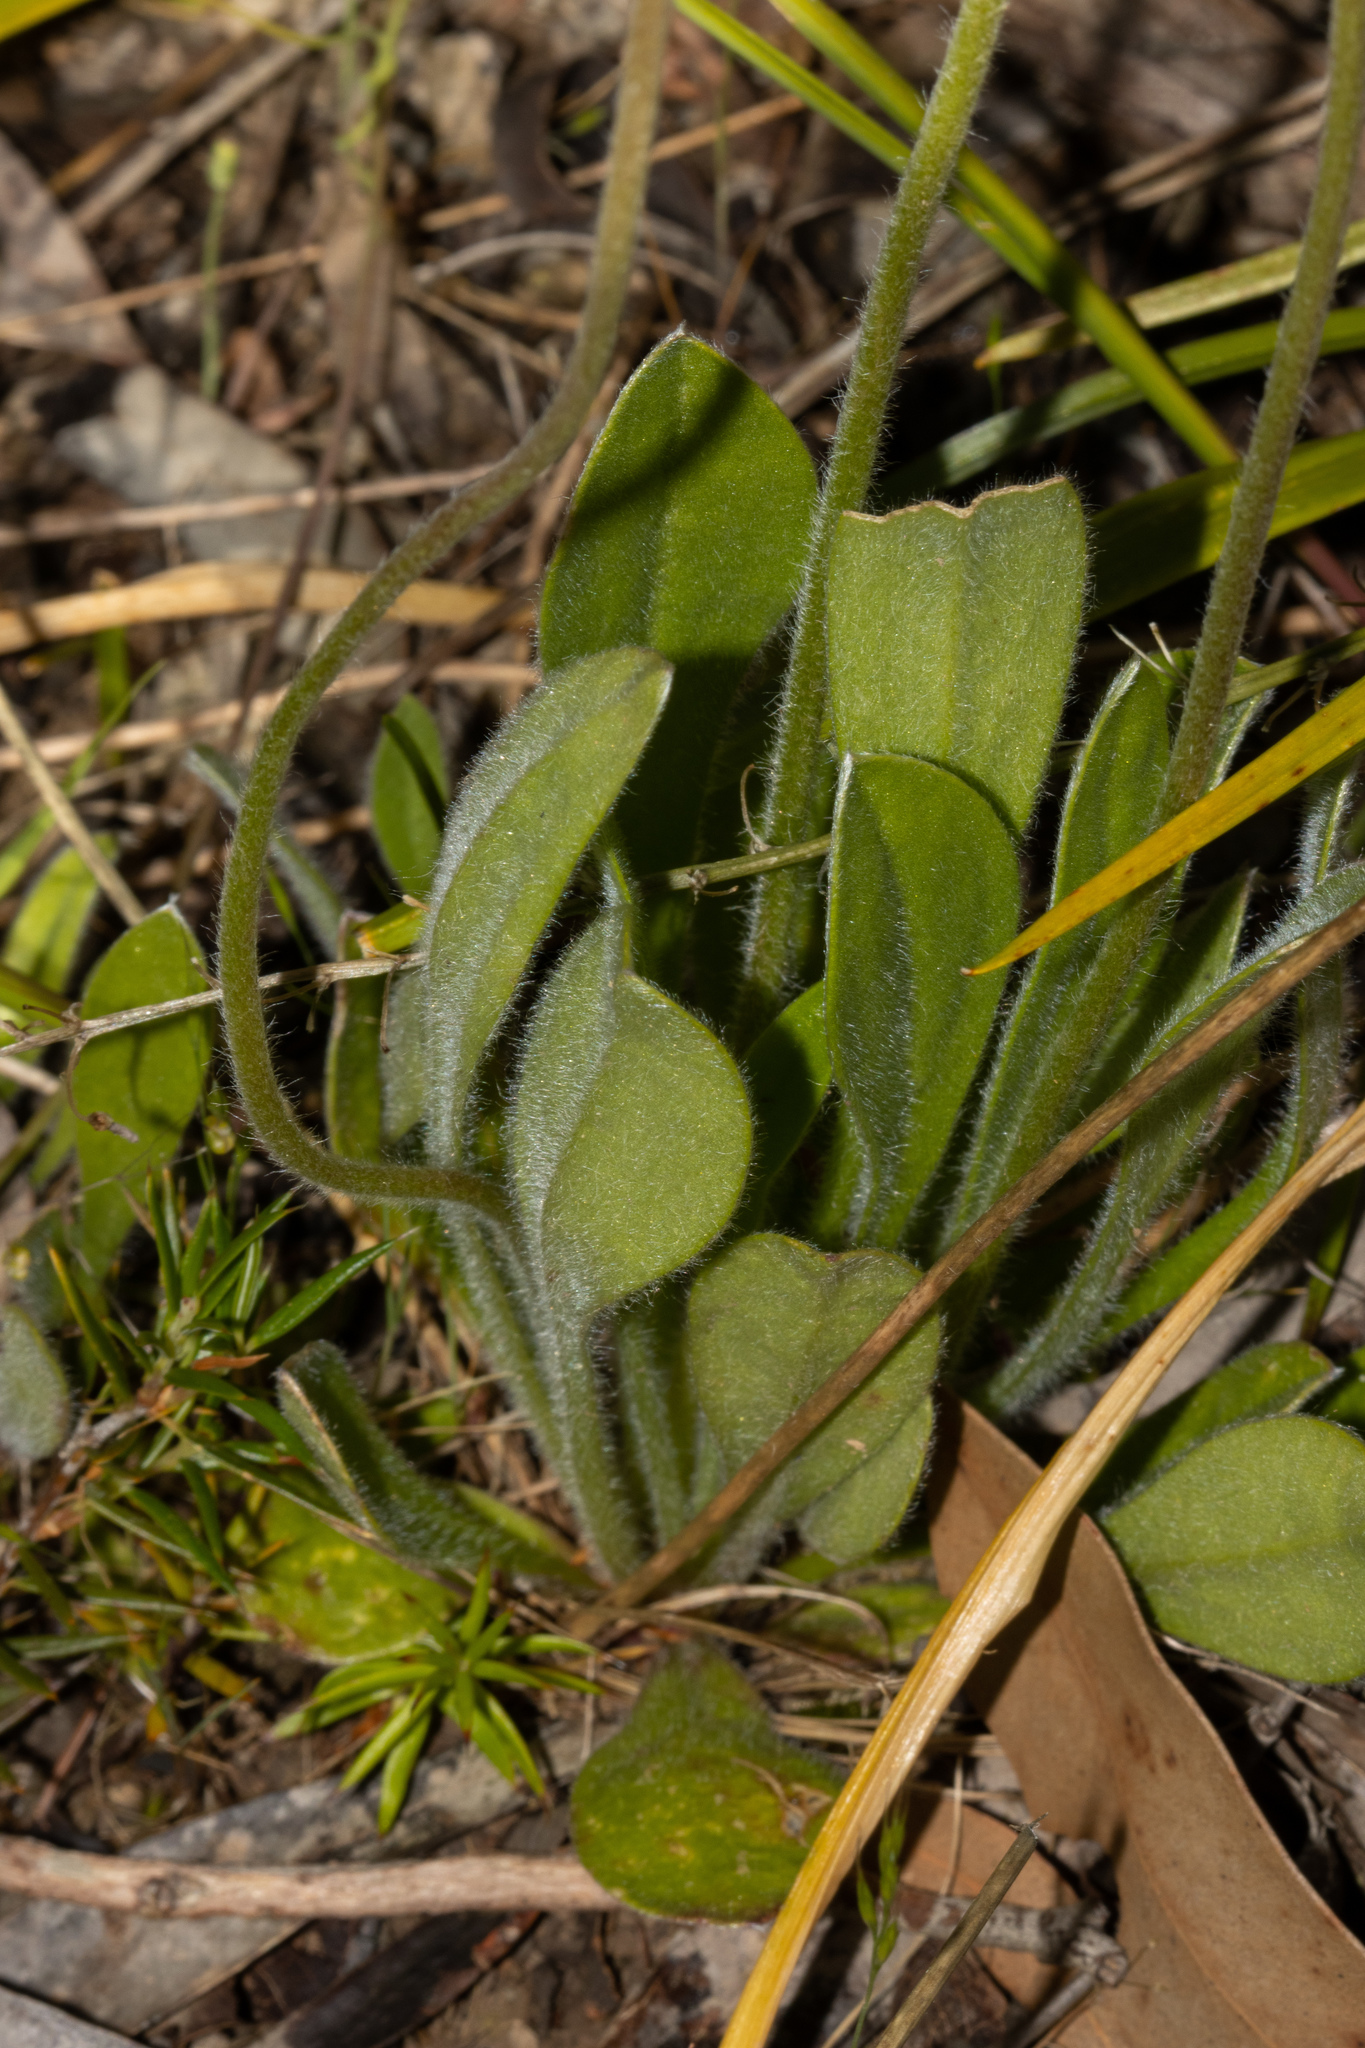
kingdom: Plantae
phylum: Tracheophyta
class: Magnoliopsida
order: Asterales
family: Goodeniaceae
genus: Brunonia
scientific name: Brunonia australis
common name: Blue pincushion
